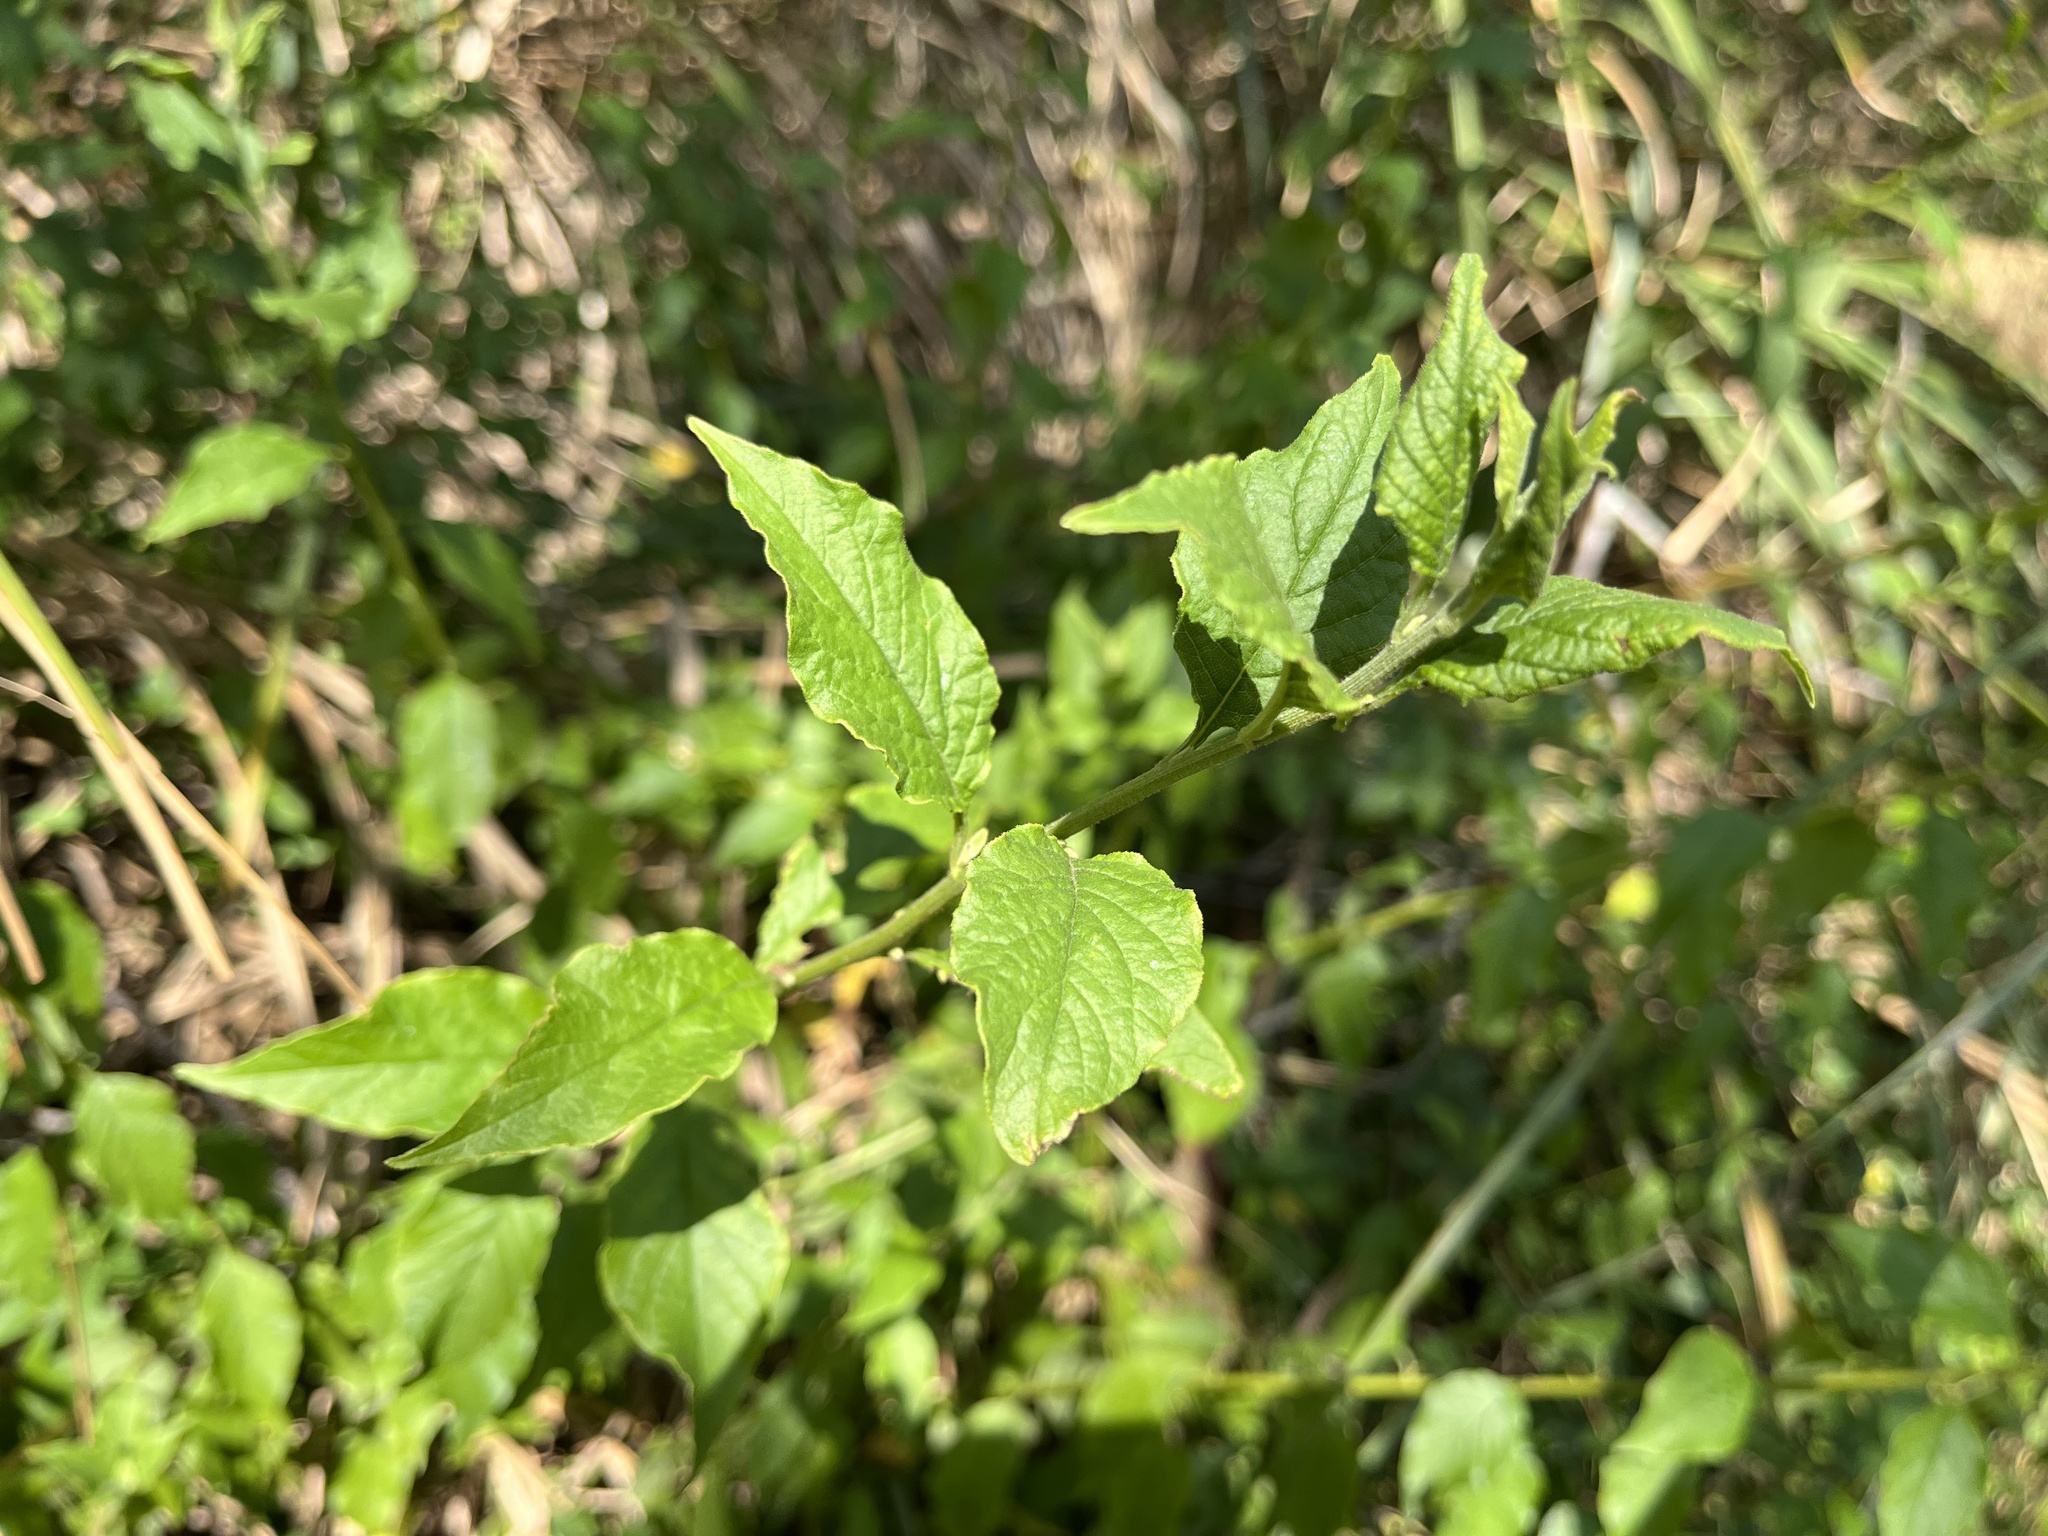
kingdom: Plantae
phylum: Tracheophyta
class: Magnoliopsida
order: Asterales
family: Asteraceae
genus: Microglossa
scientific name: Microglossa pyrifolia
